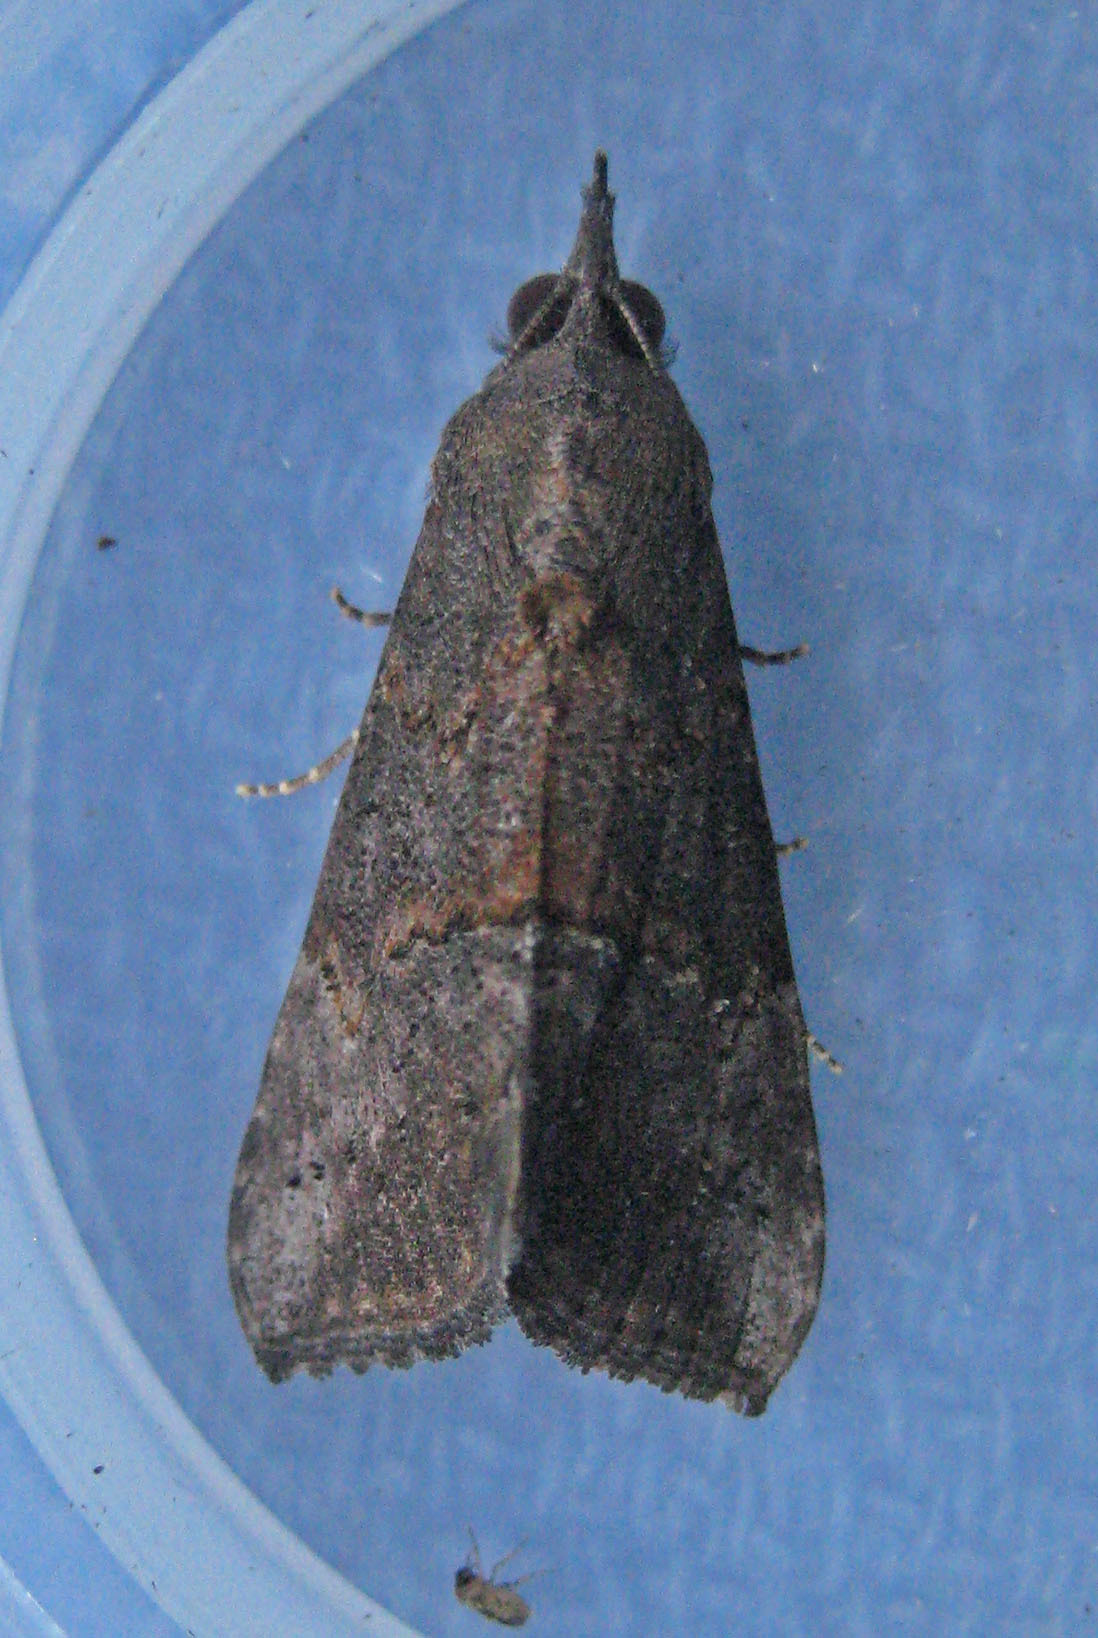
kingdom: Animalia
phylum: Arthropoda
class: Insecta
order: Lepidoptera
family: Erebidae
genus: Hypena
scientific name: Hypena scabra
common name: Green cloverworm
